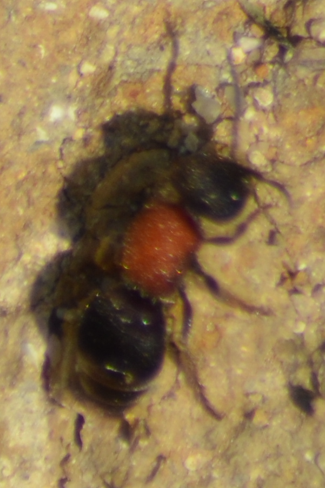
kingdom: Animalia
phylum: Arthropoda
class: Insecta
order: Hymenoptera
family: Mutillidae
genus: Tropidotilla
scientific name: Tropidotilla litoralis
